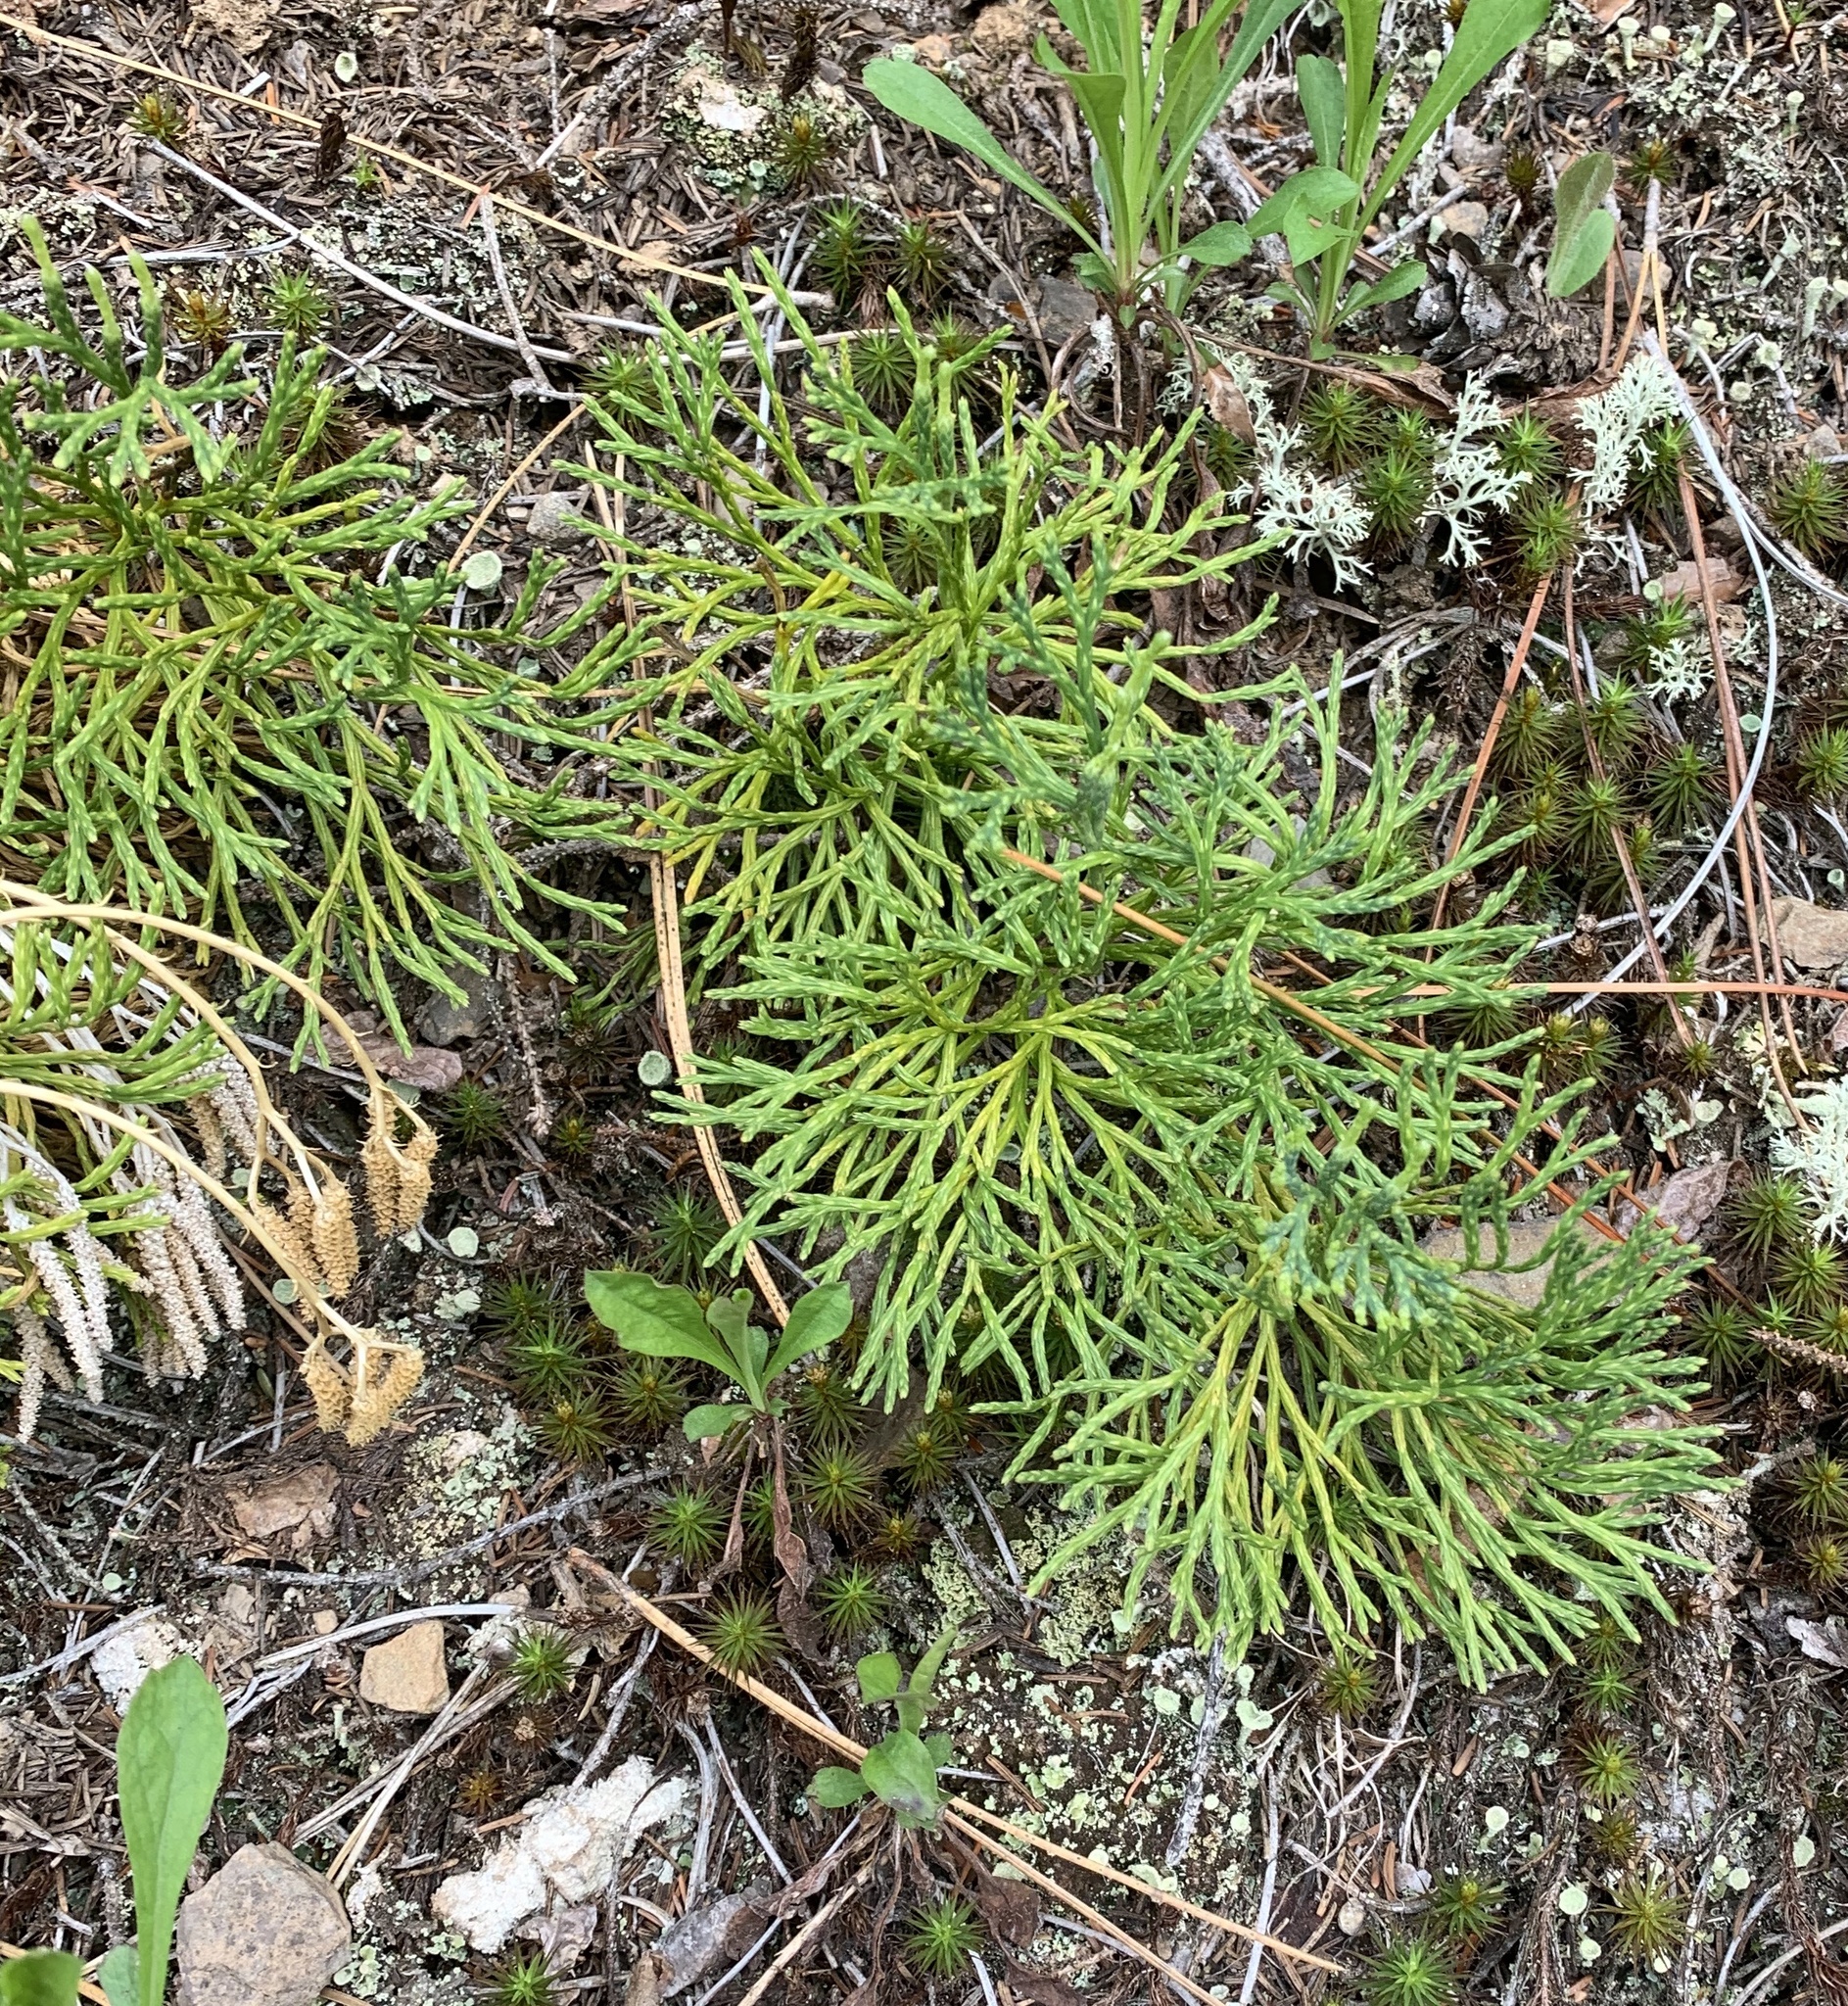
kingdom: Plantae
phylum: Tracheophyta
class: Lycopodiopsida
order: Lycopodiales
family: Lycopodiaceae
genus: Diphasiastrum
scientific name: Diphasiastrum digitatum
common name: Southern running-pine
